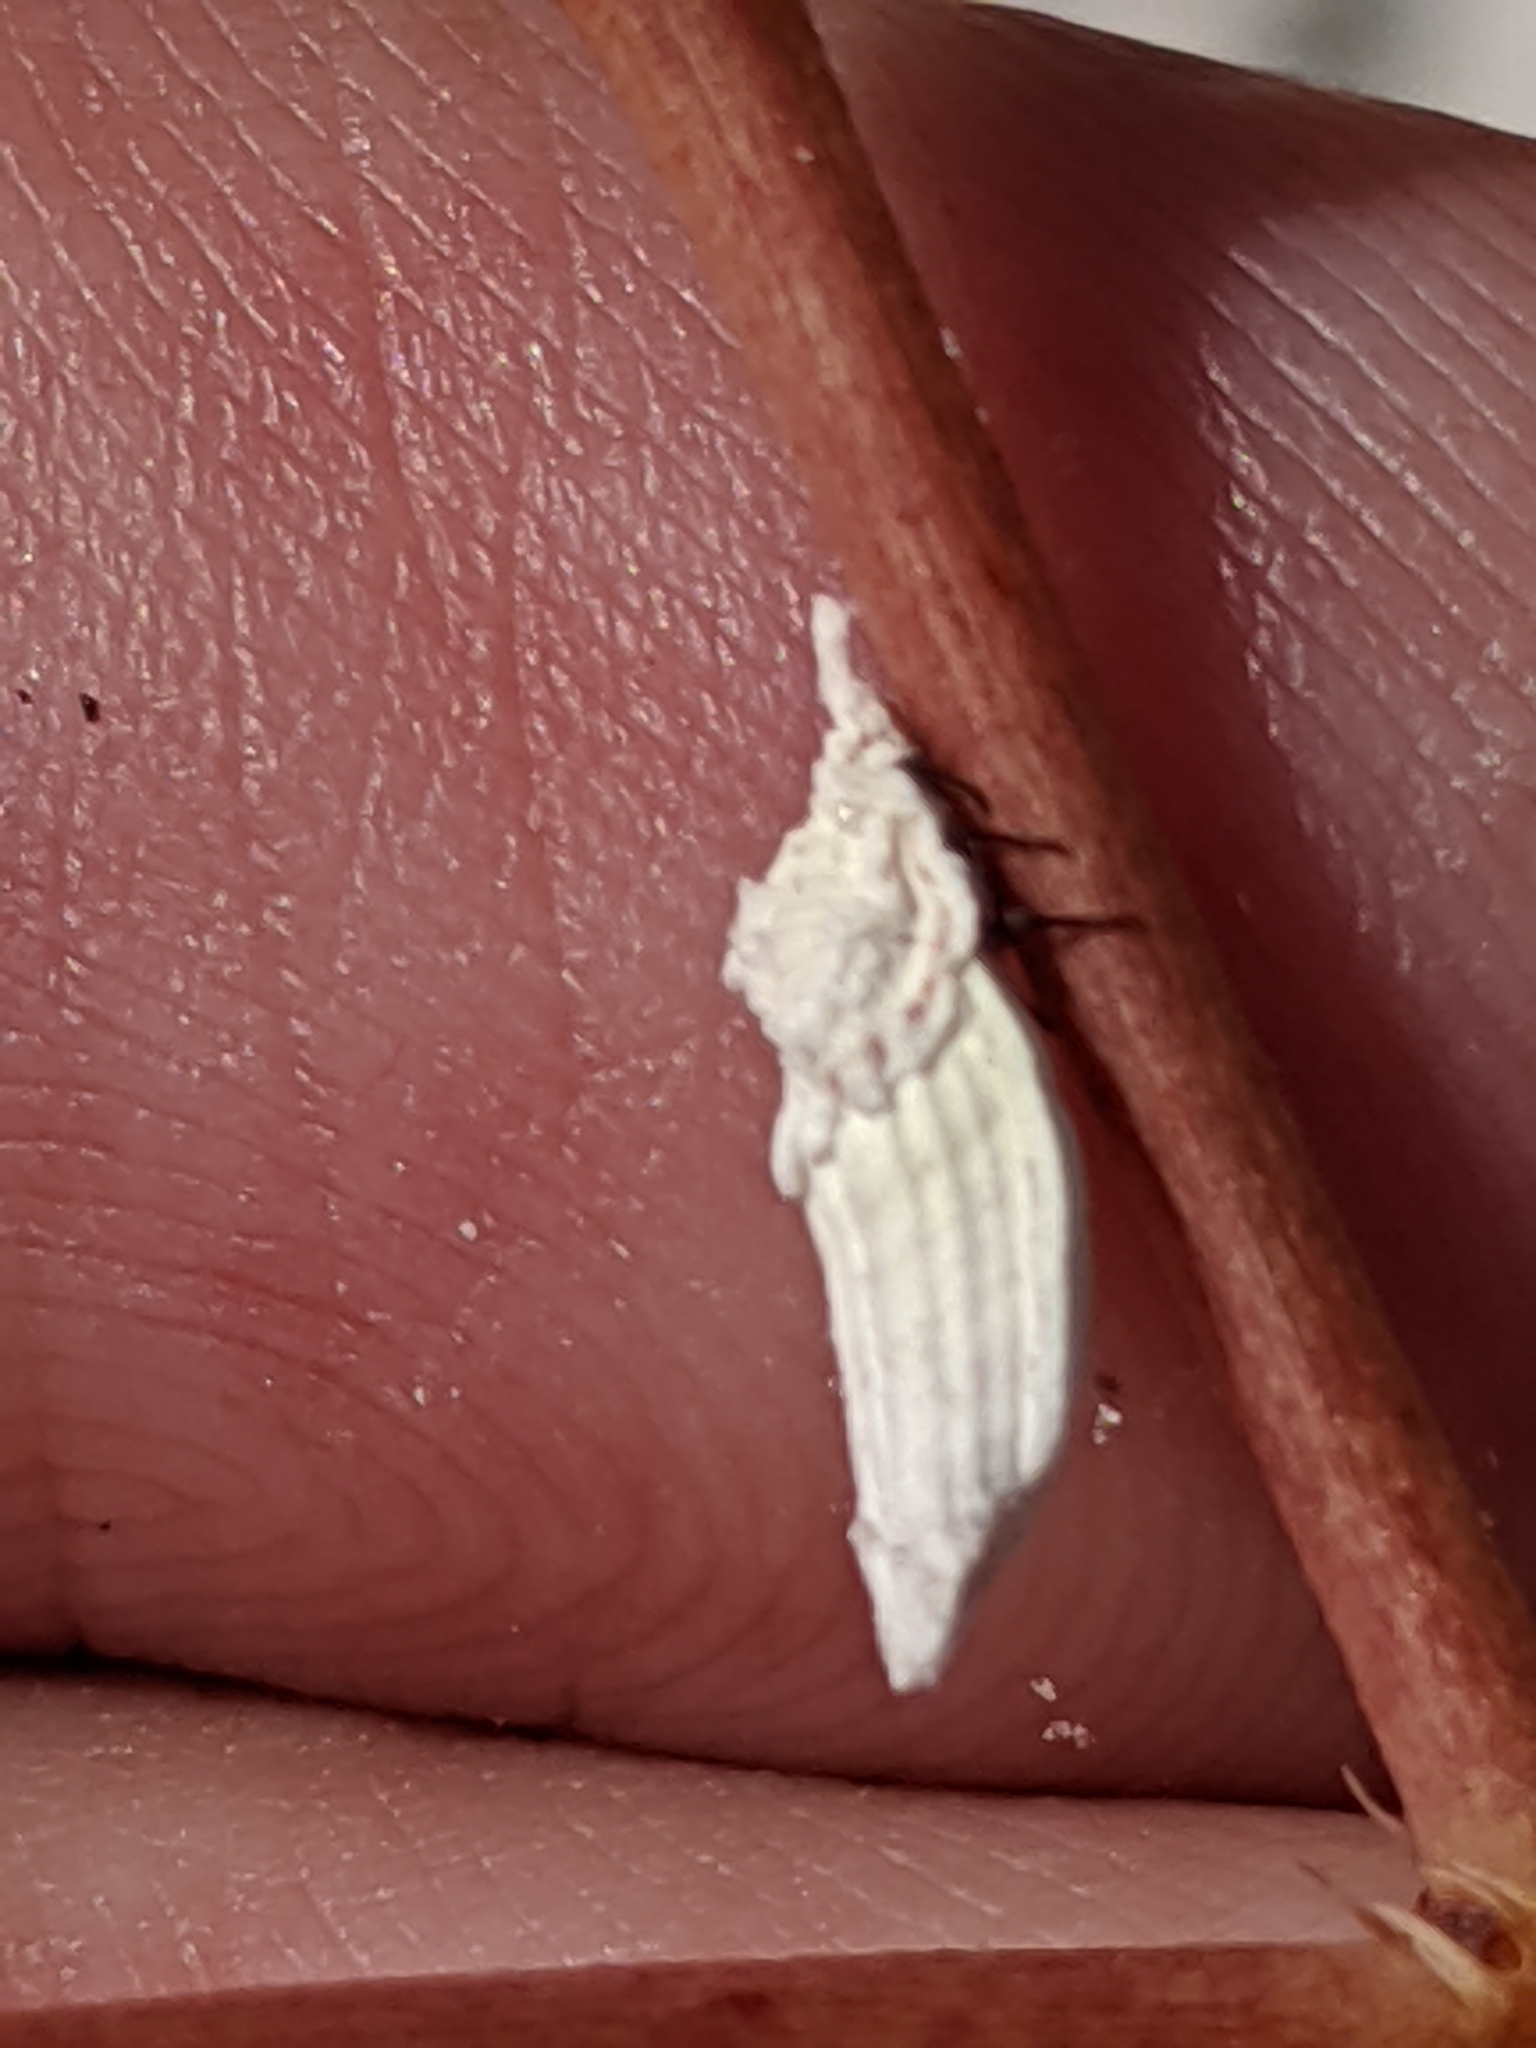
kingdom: Animalia
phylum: Arthropoda
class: Insecta
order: Hemiptera
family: Margarodidae
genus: Crypticerya
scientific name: Crypticerya genistae
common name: Giant scale insect
